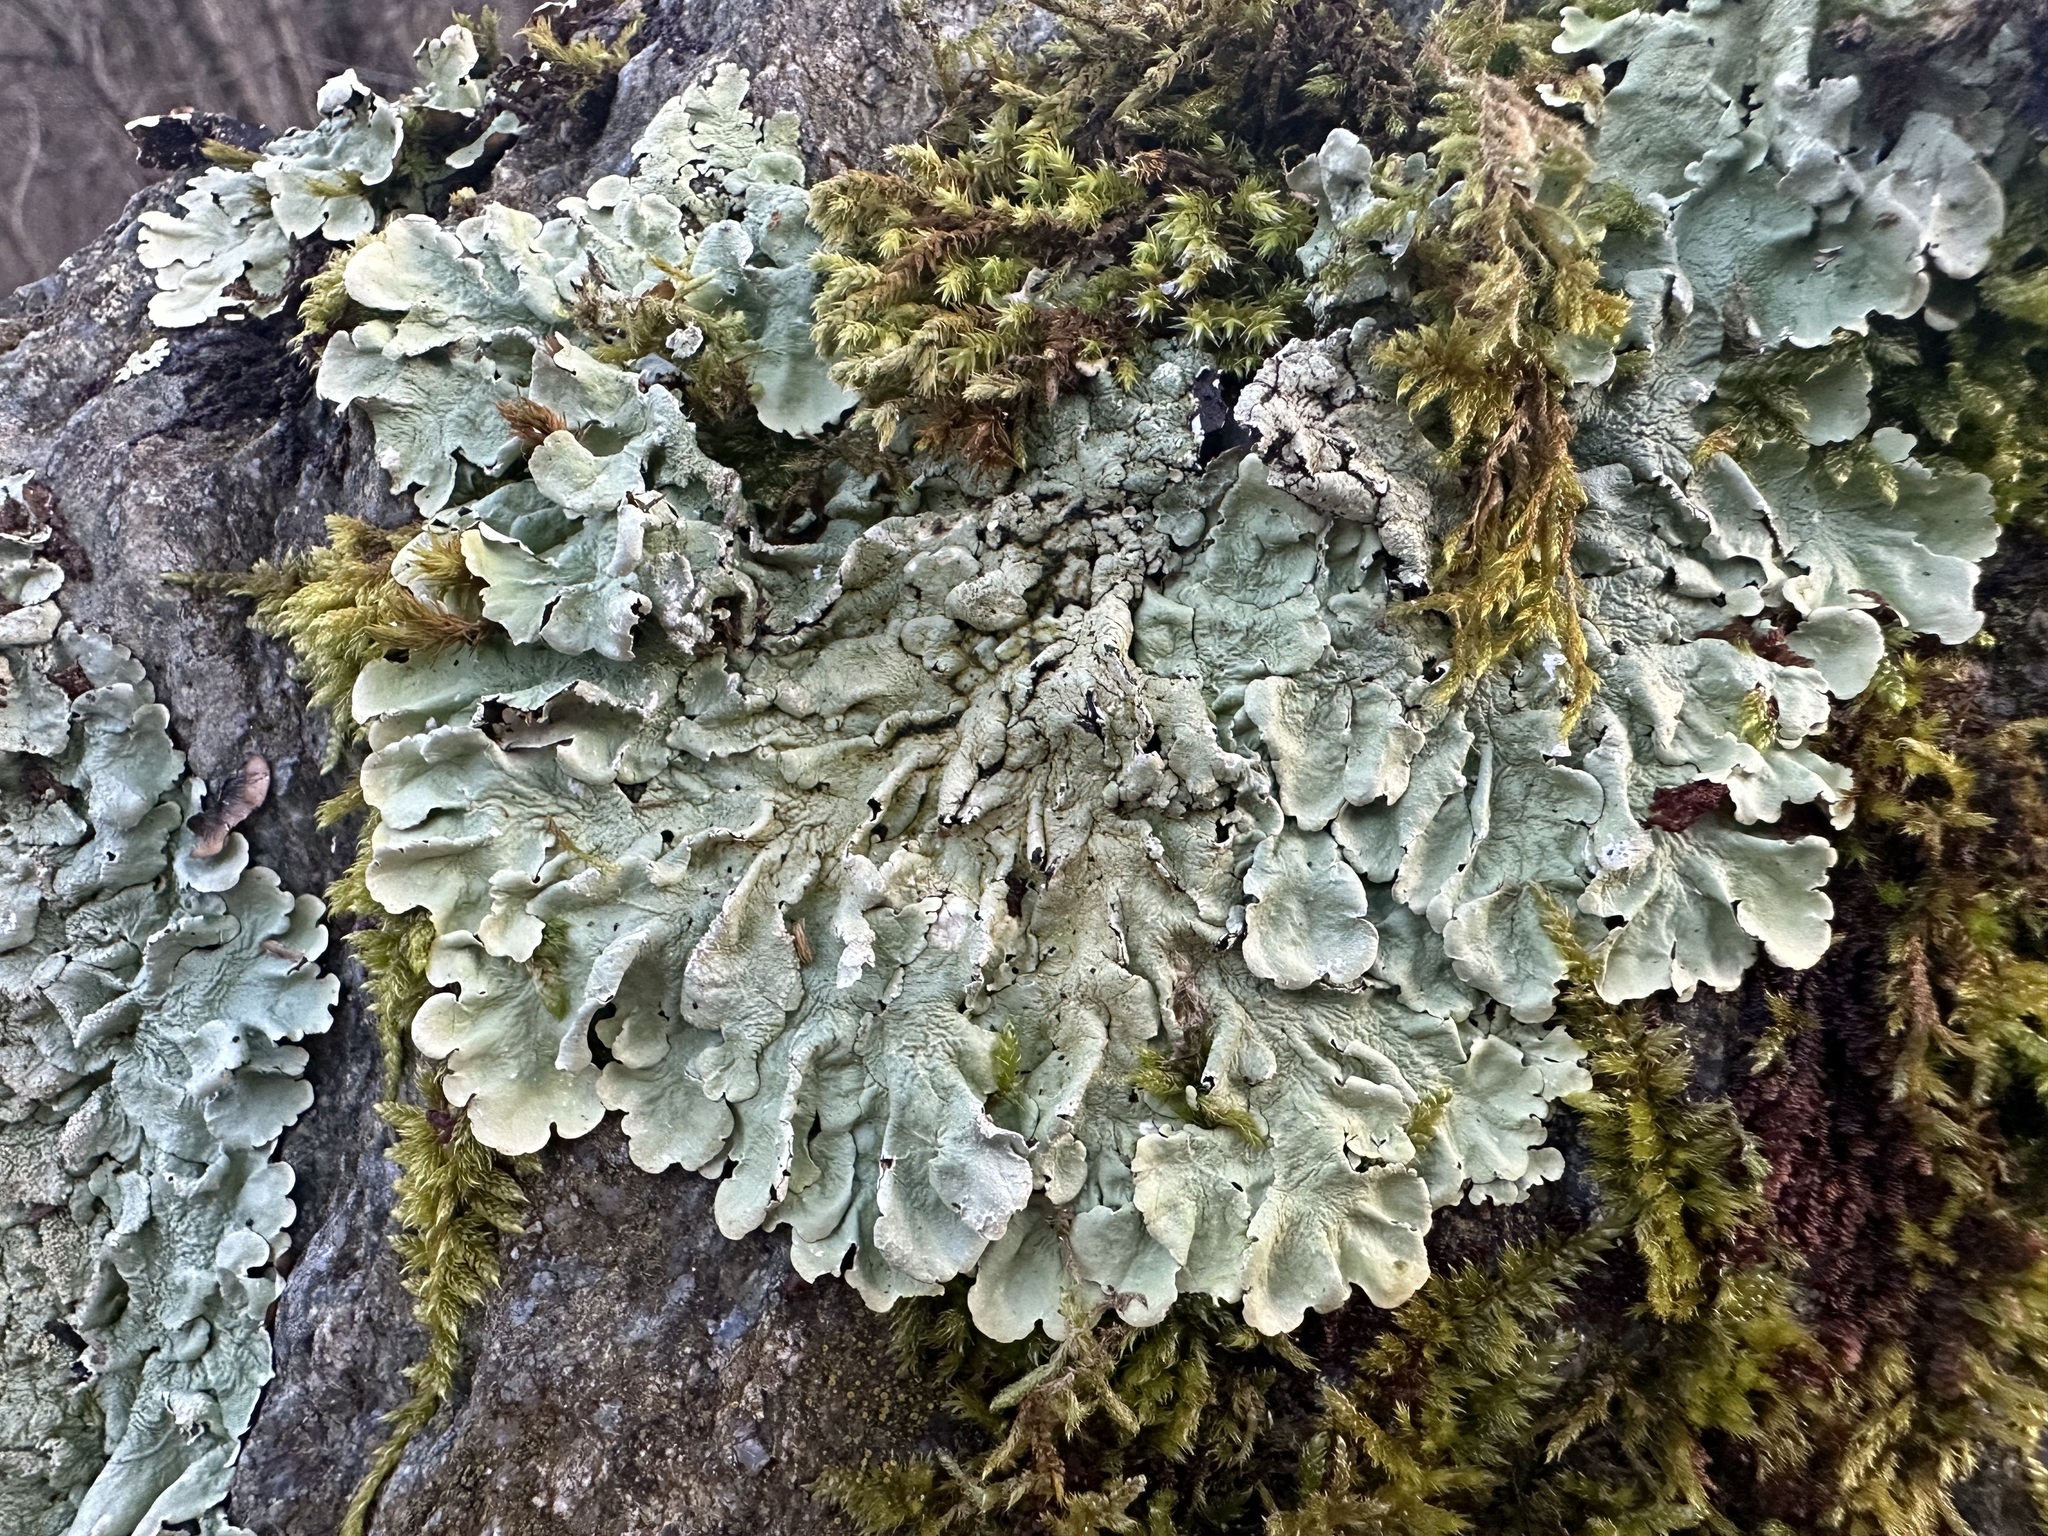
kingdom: Fungi
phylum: Ascomycota
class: Lecanoromycetes
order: Lecanorales
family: Parmeliaceae
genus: Flavoparmelia
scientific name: Flavoparmelia caperata
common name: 40-mile per hour lichen
